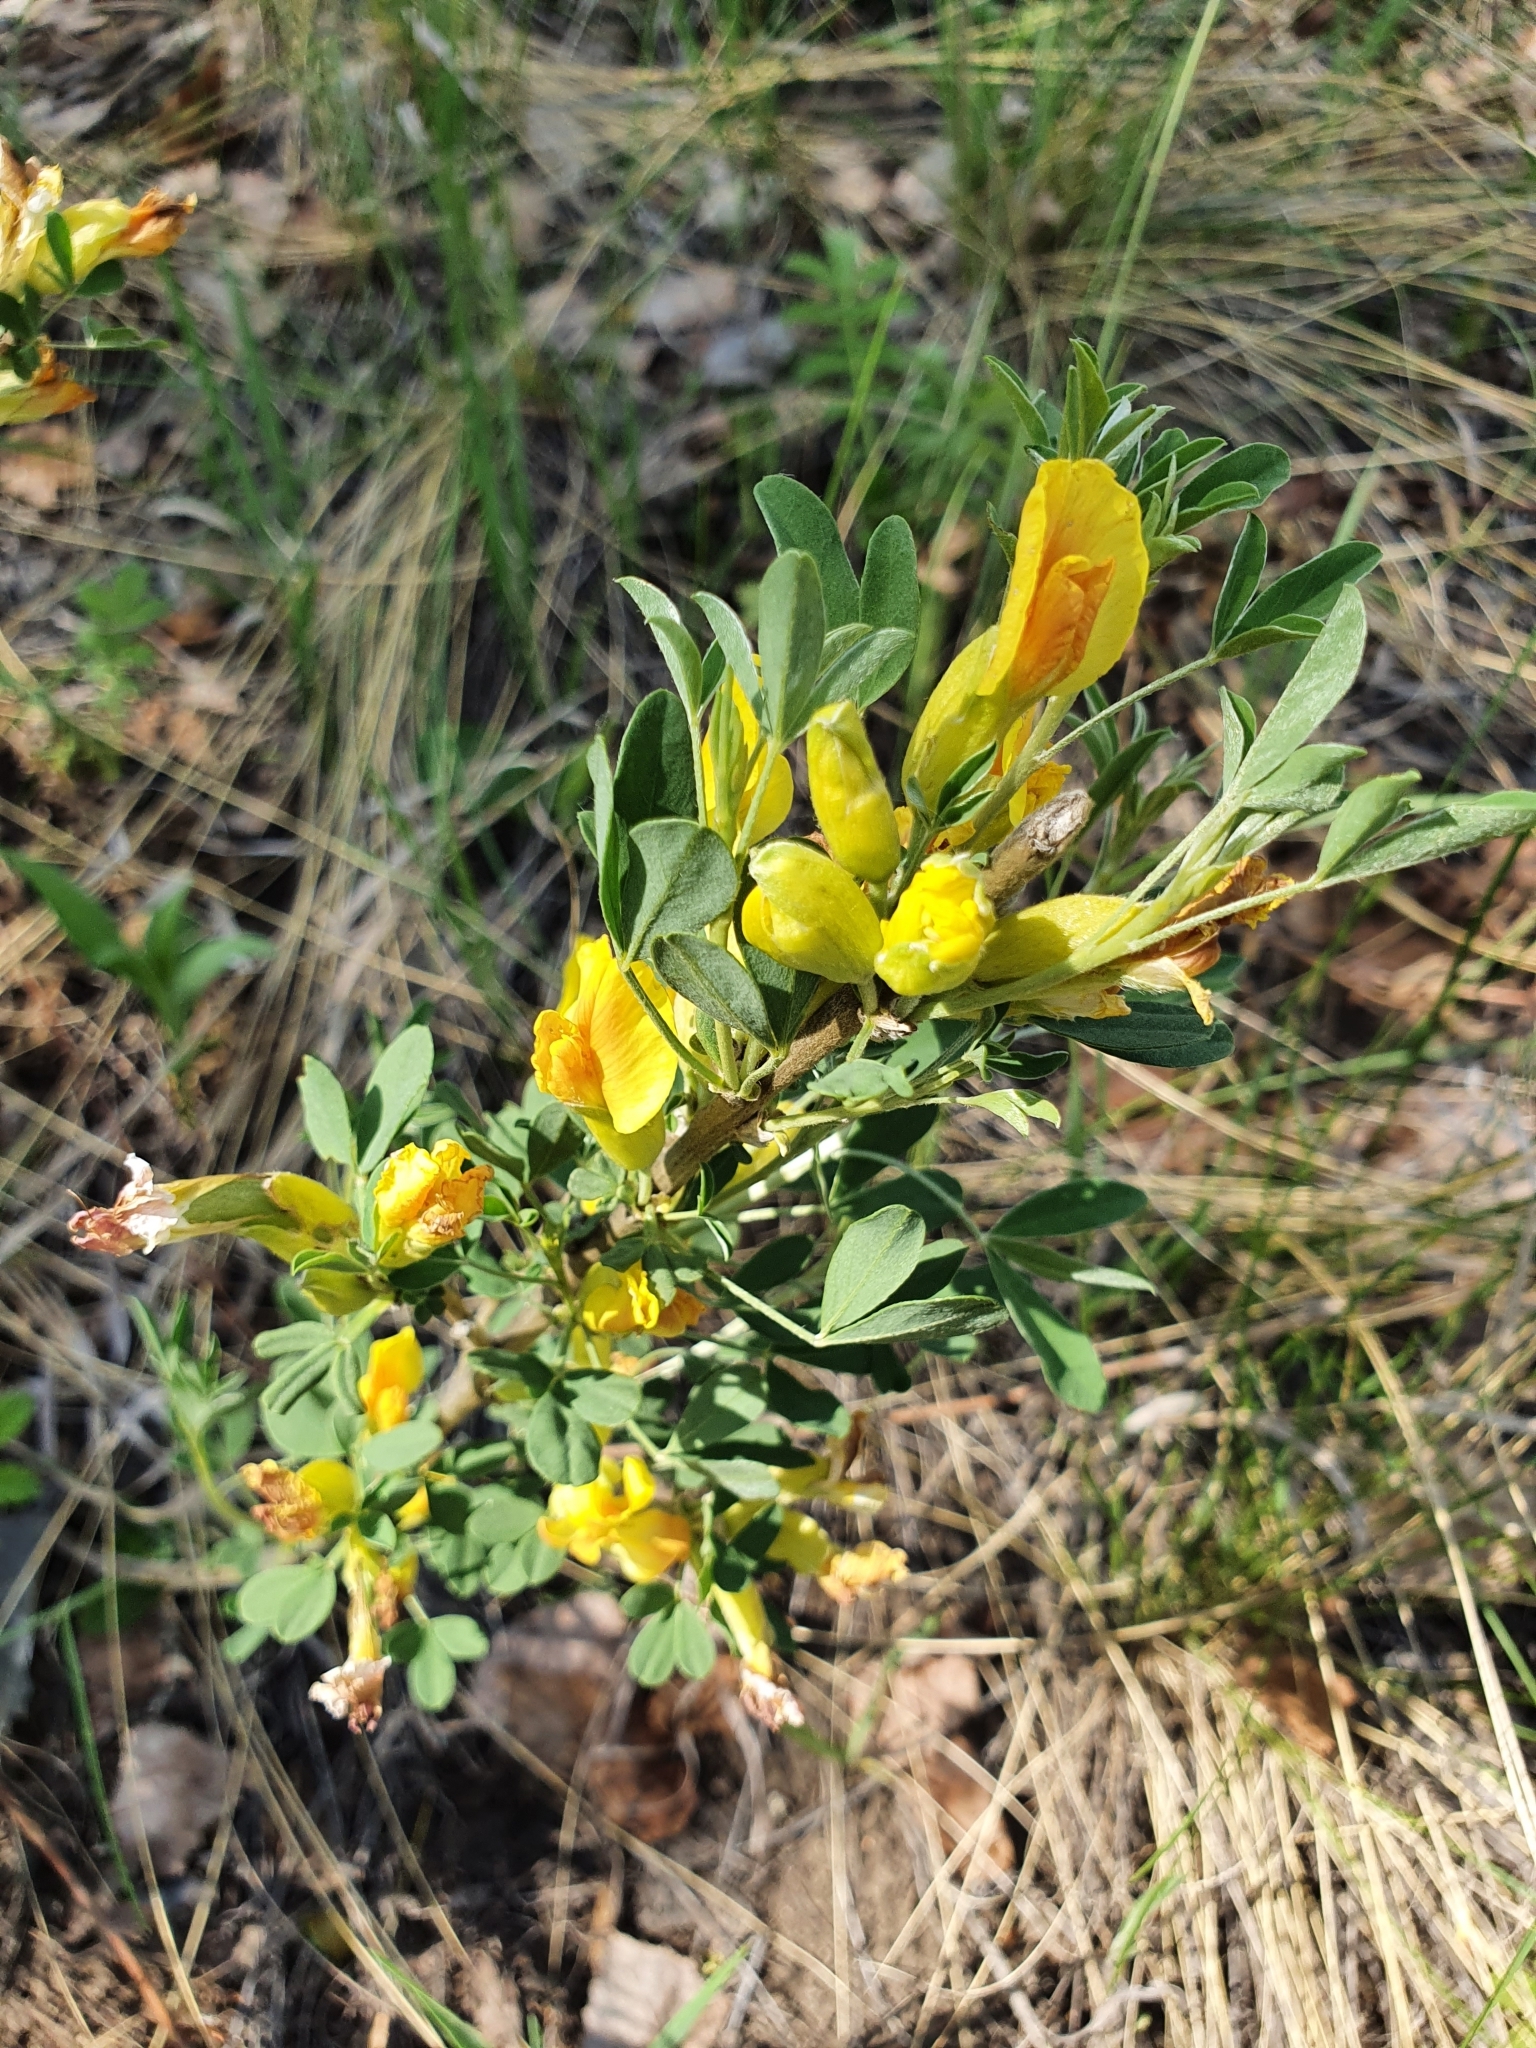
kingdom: Plantae
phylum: Tracheophyta
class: Magnoliopsida
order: Fabales
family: Fabaceae
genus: Chamaecytisus
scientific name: Chamaecytisus ruthenicus
